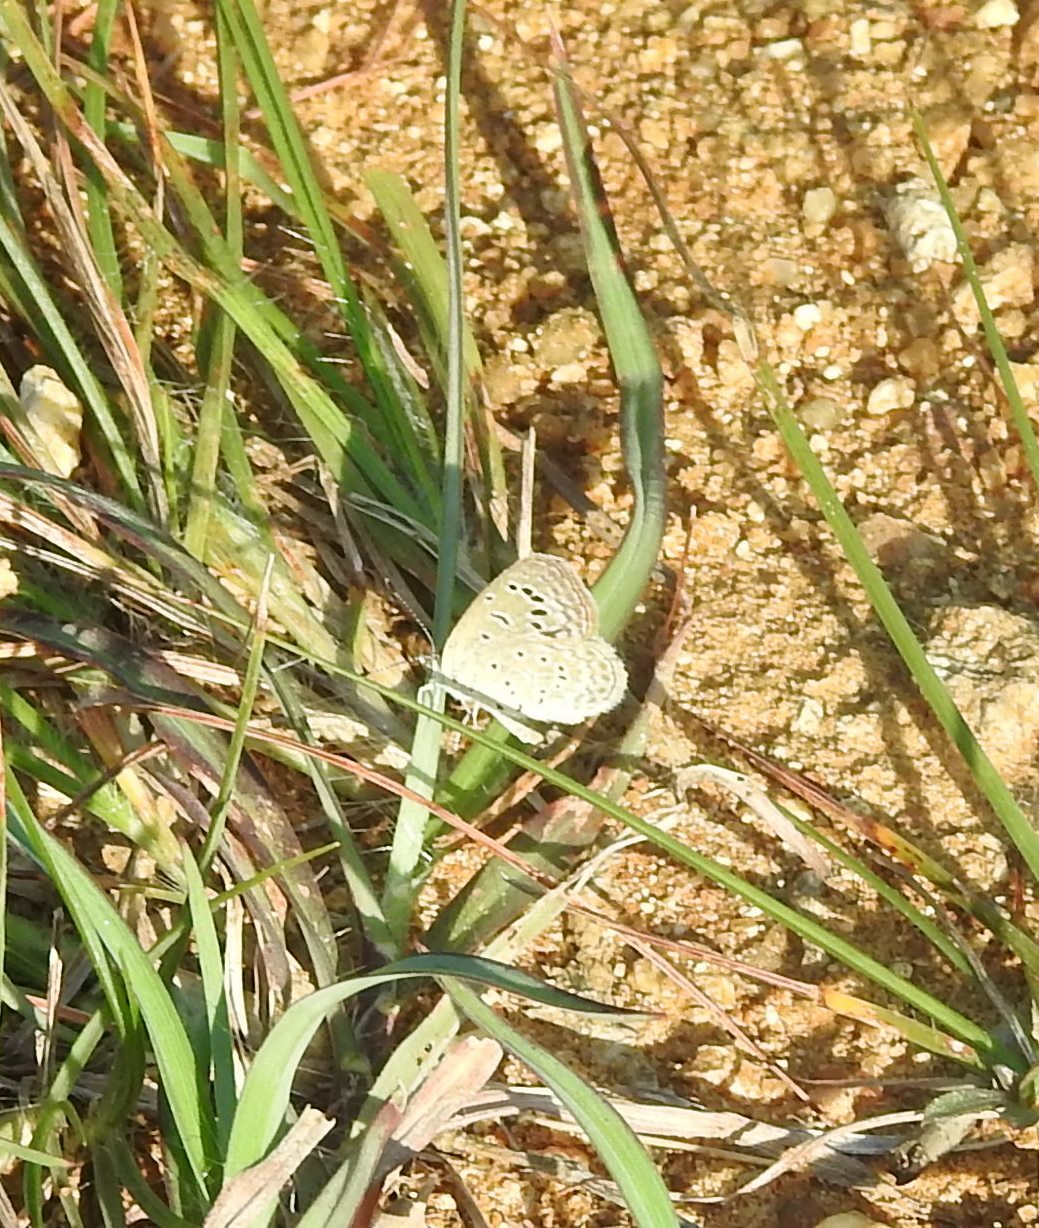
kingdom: Animalia
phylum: Arthropoda
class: Insecta
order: Lepidoptera
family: Lycaenidae
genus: Zizeeria
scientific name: Zizeeria karsandra
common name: Dark grass blue
